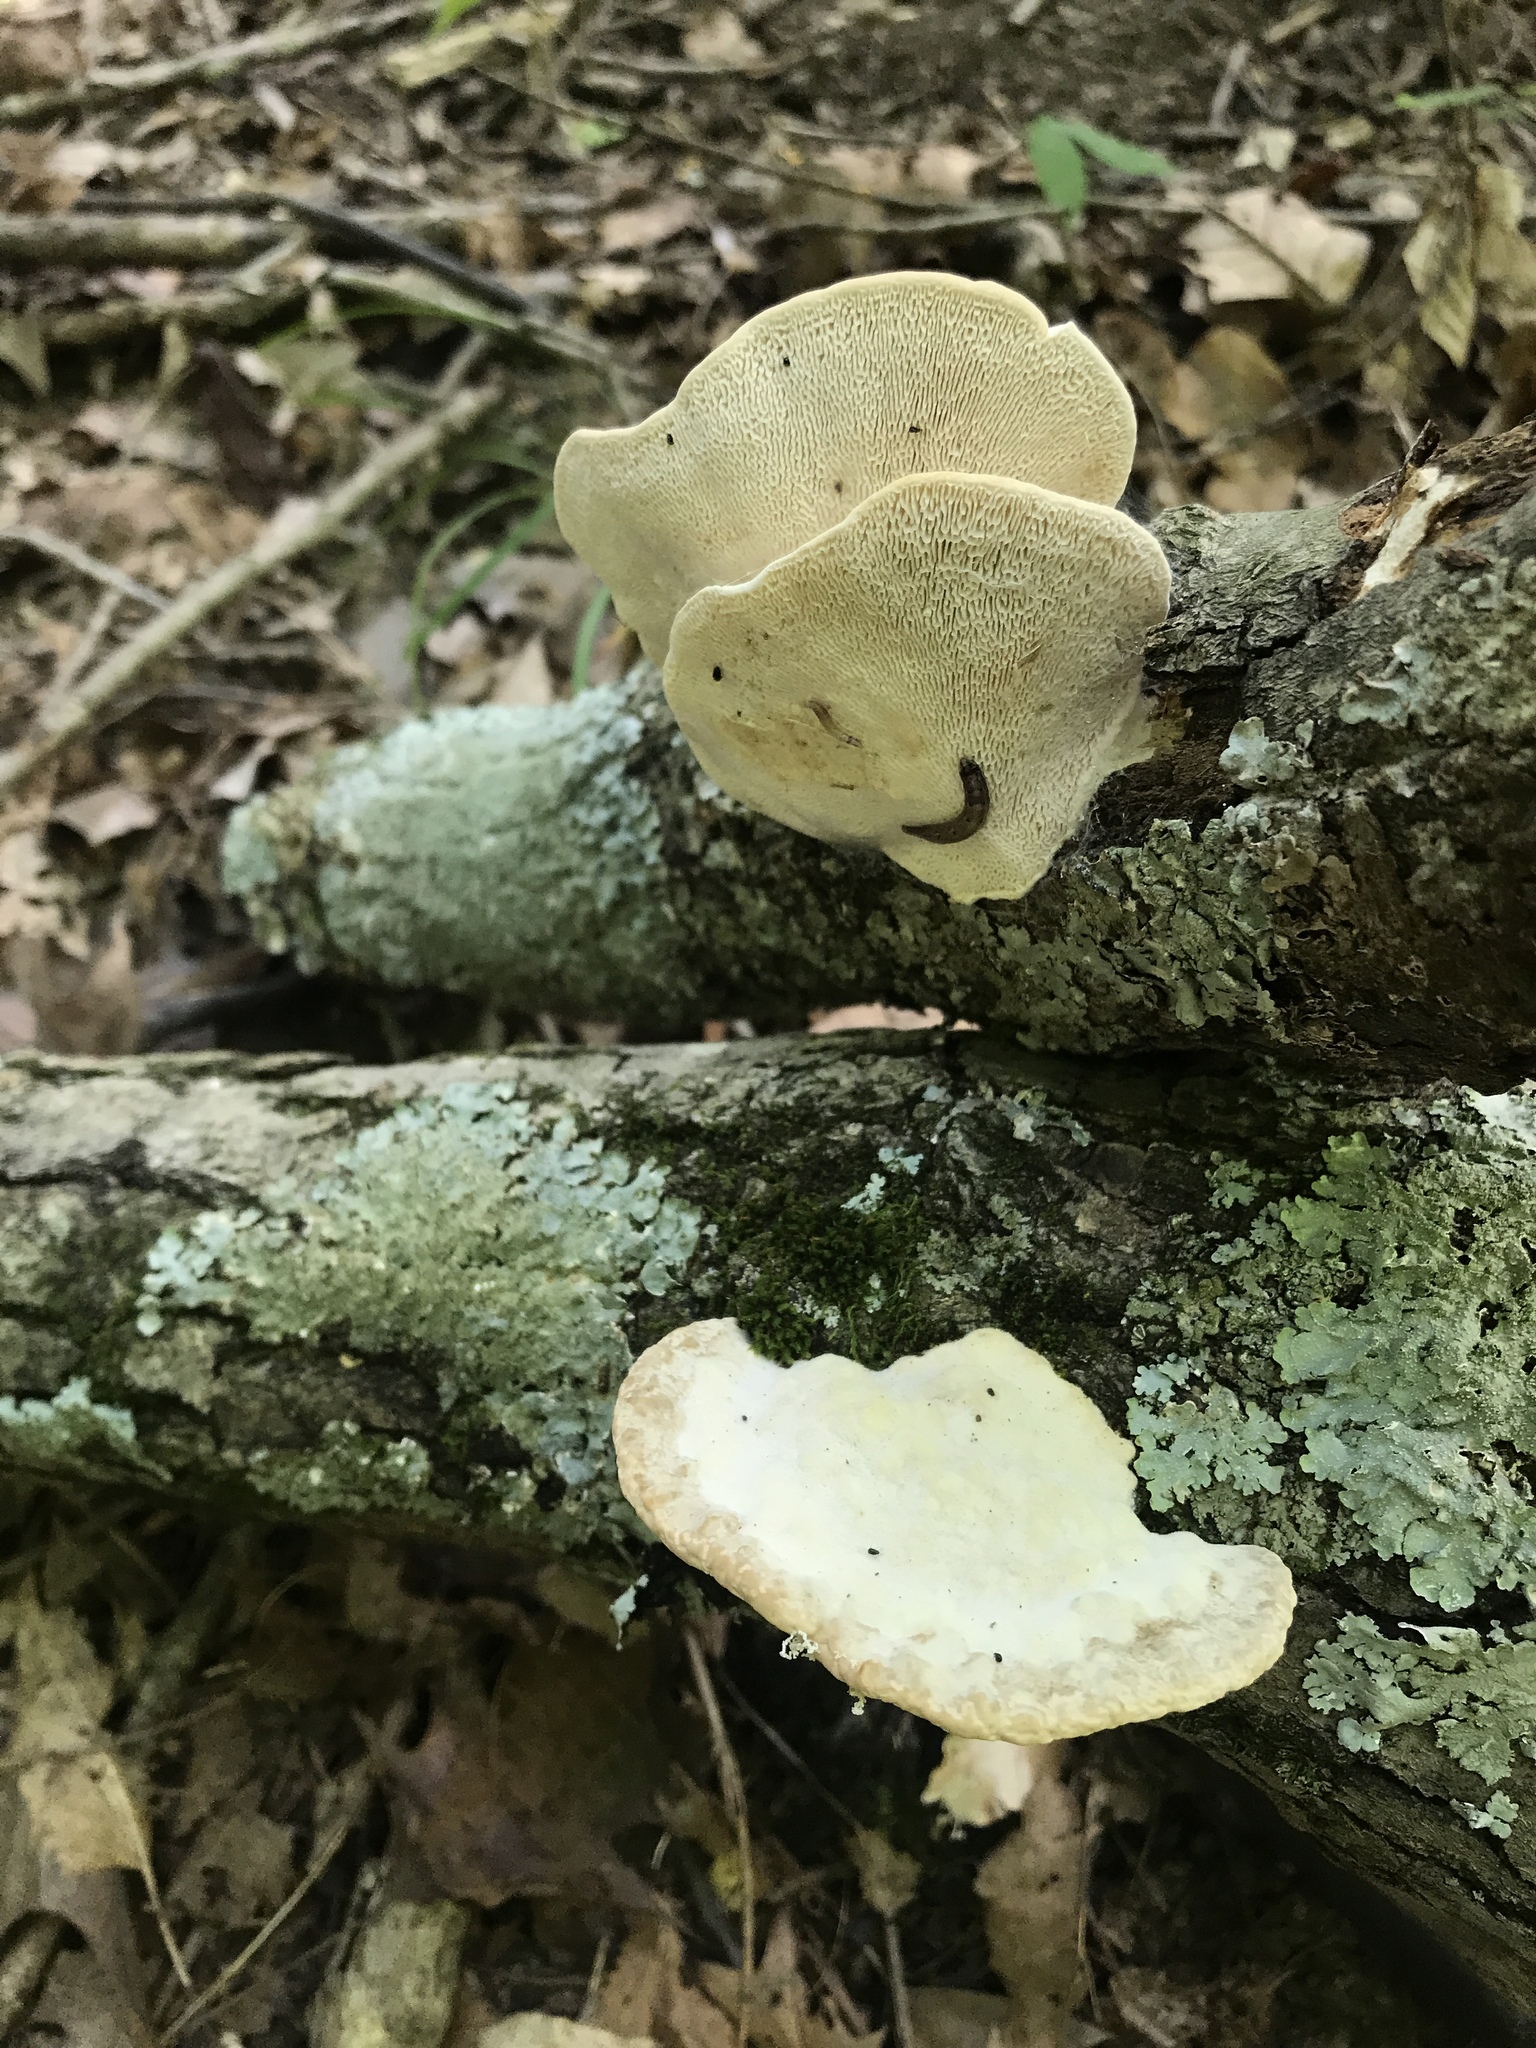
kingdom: Fungi
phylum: Basidiomycota
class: Agaricomycetes
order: Polyporales
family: Polyporaceae
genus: Trametes
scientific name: Trametes
